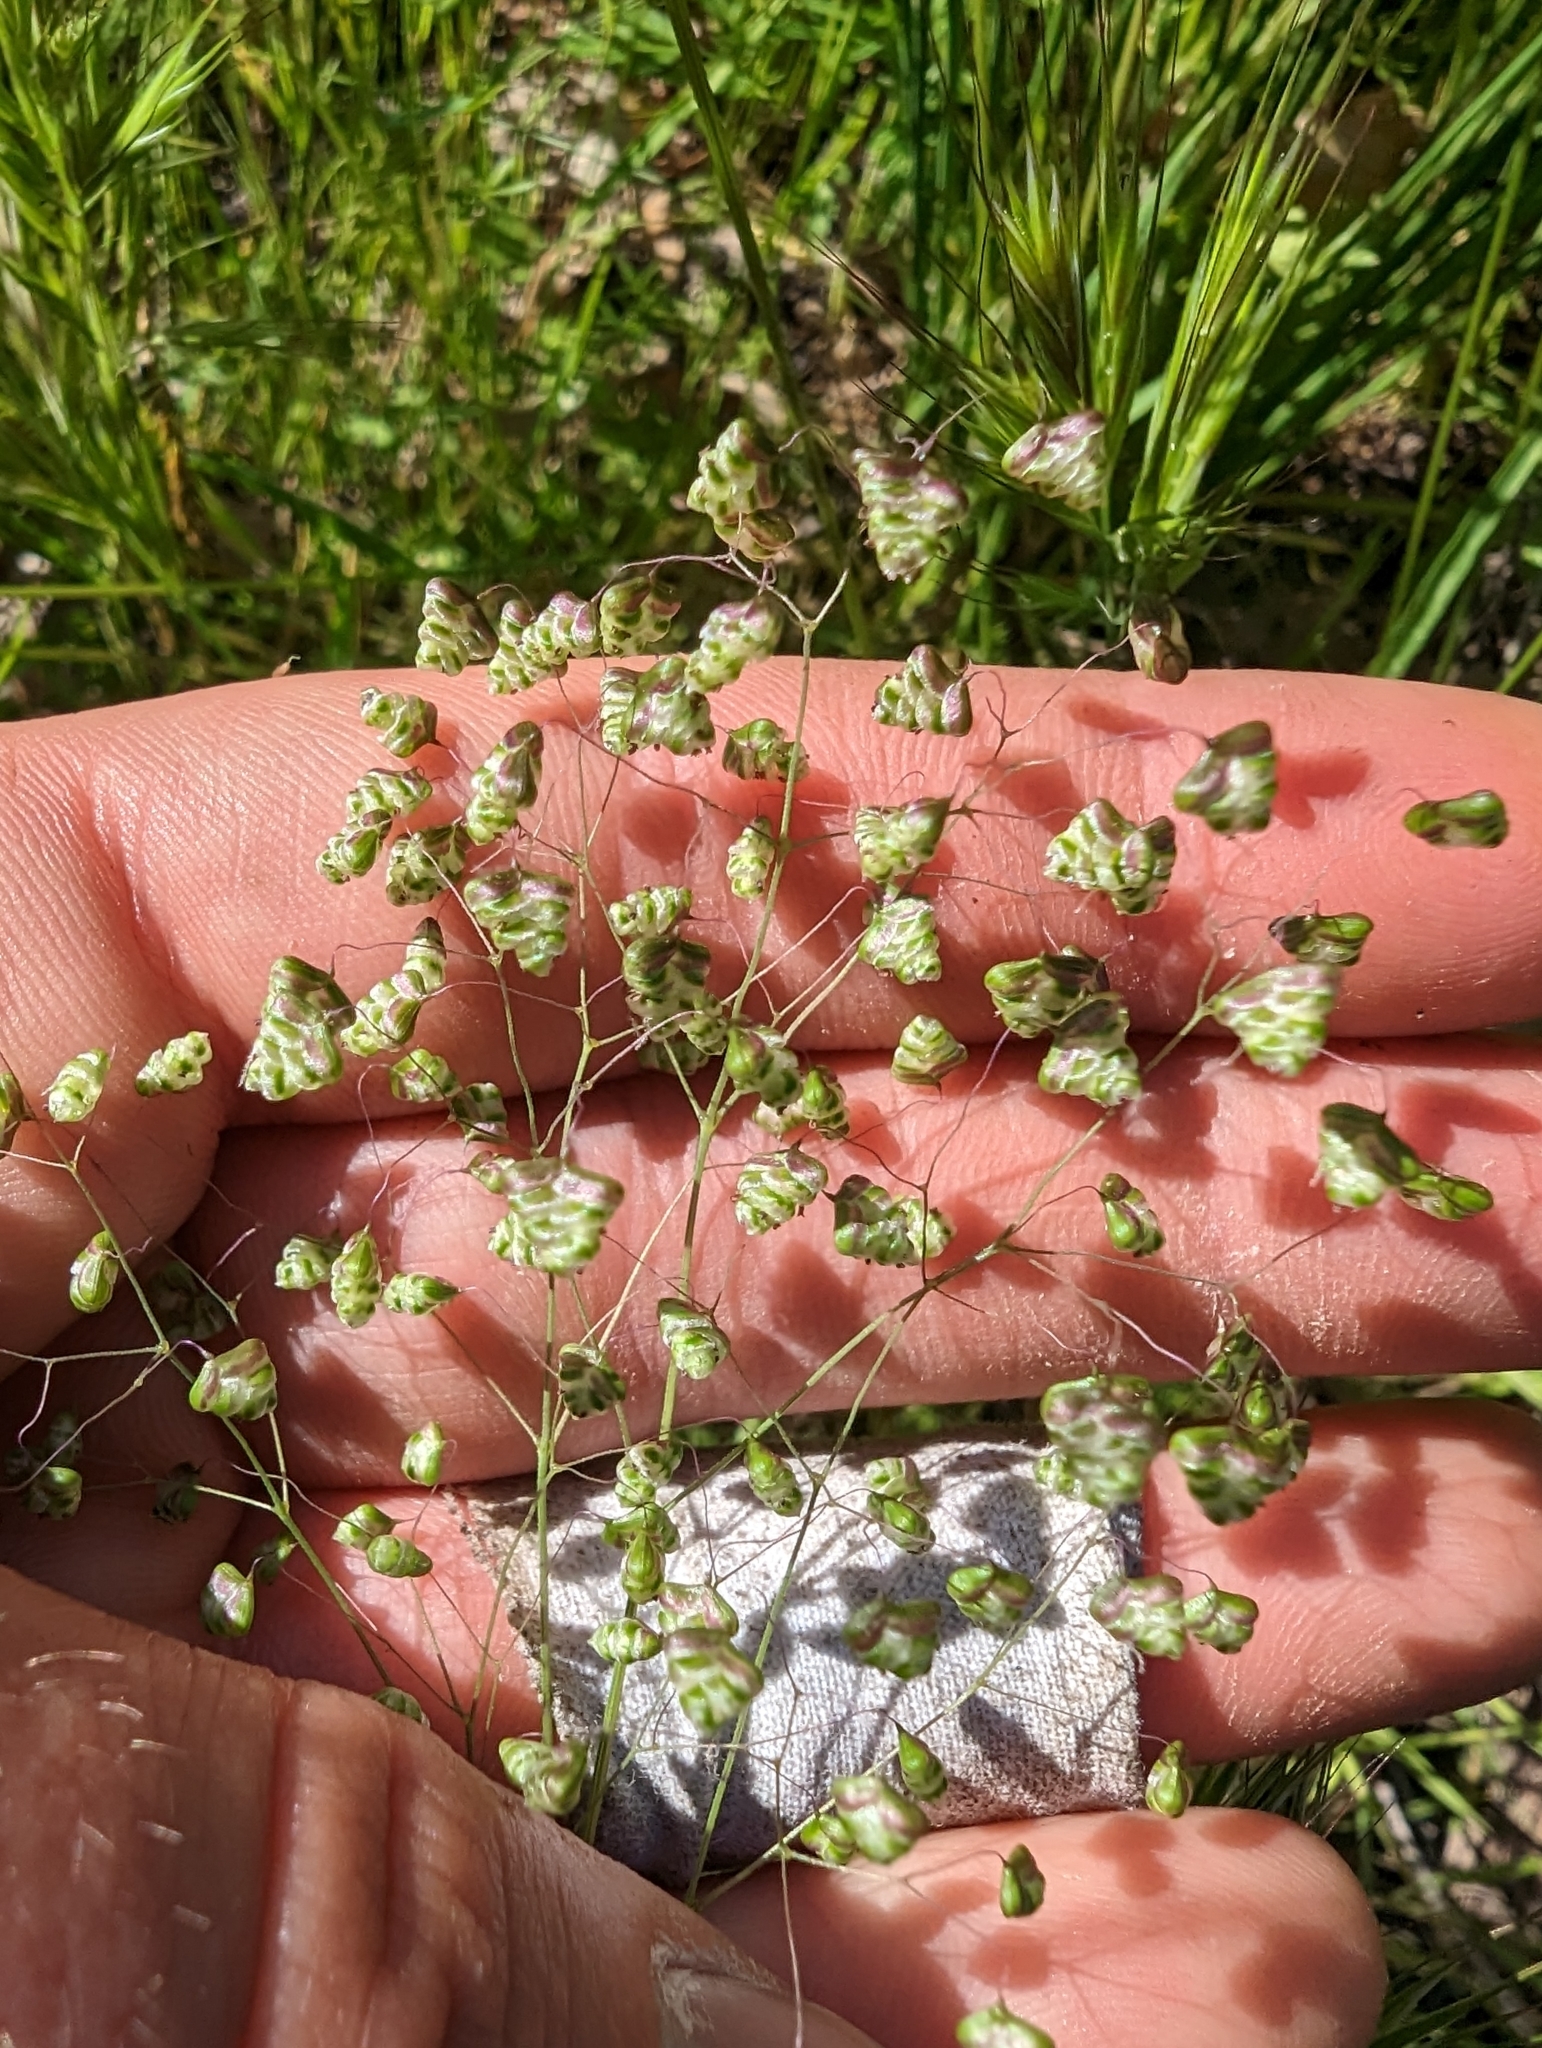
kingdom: Plantae
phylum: Tracheophyta
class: Liliopsida
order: Poales
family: Poaceae
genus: Briza
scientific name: Briza minor
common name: Lesser quaking-grass
